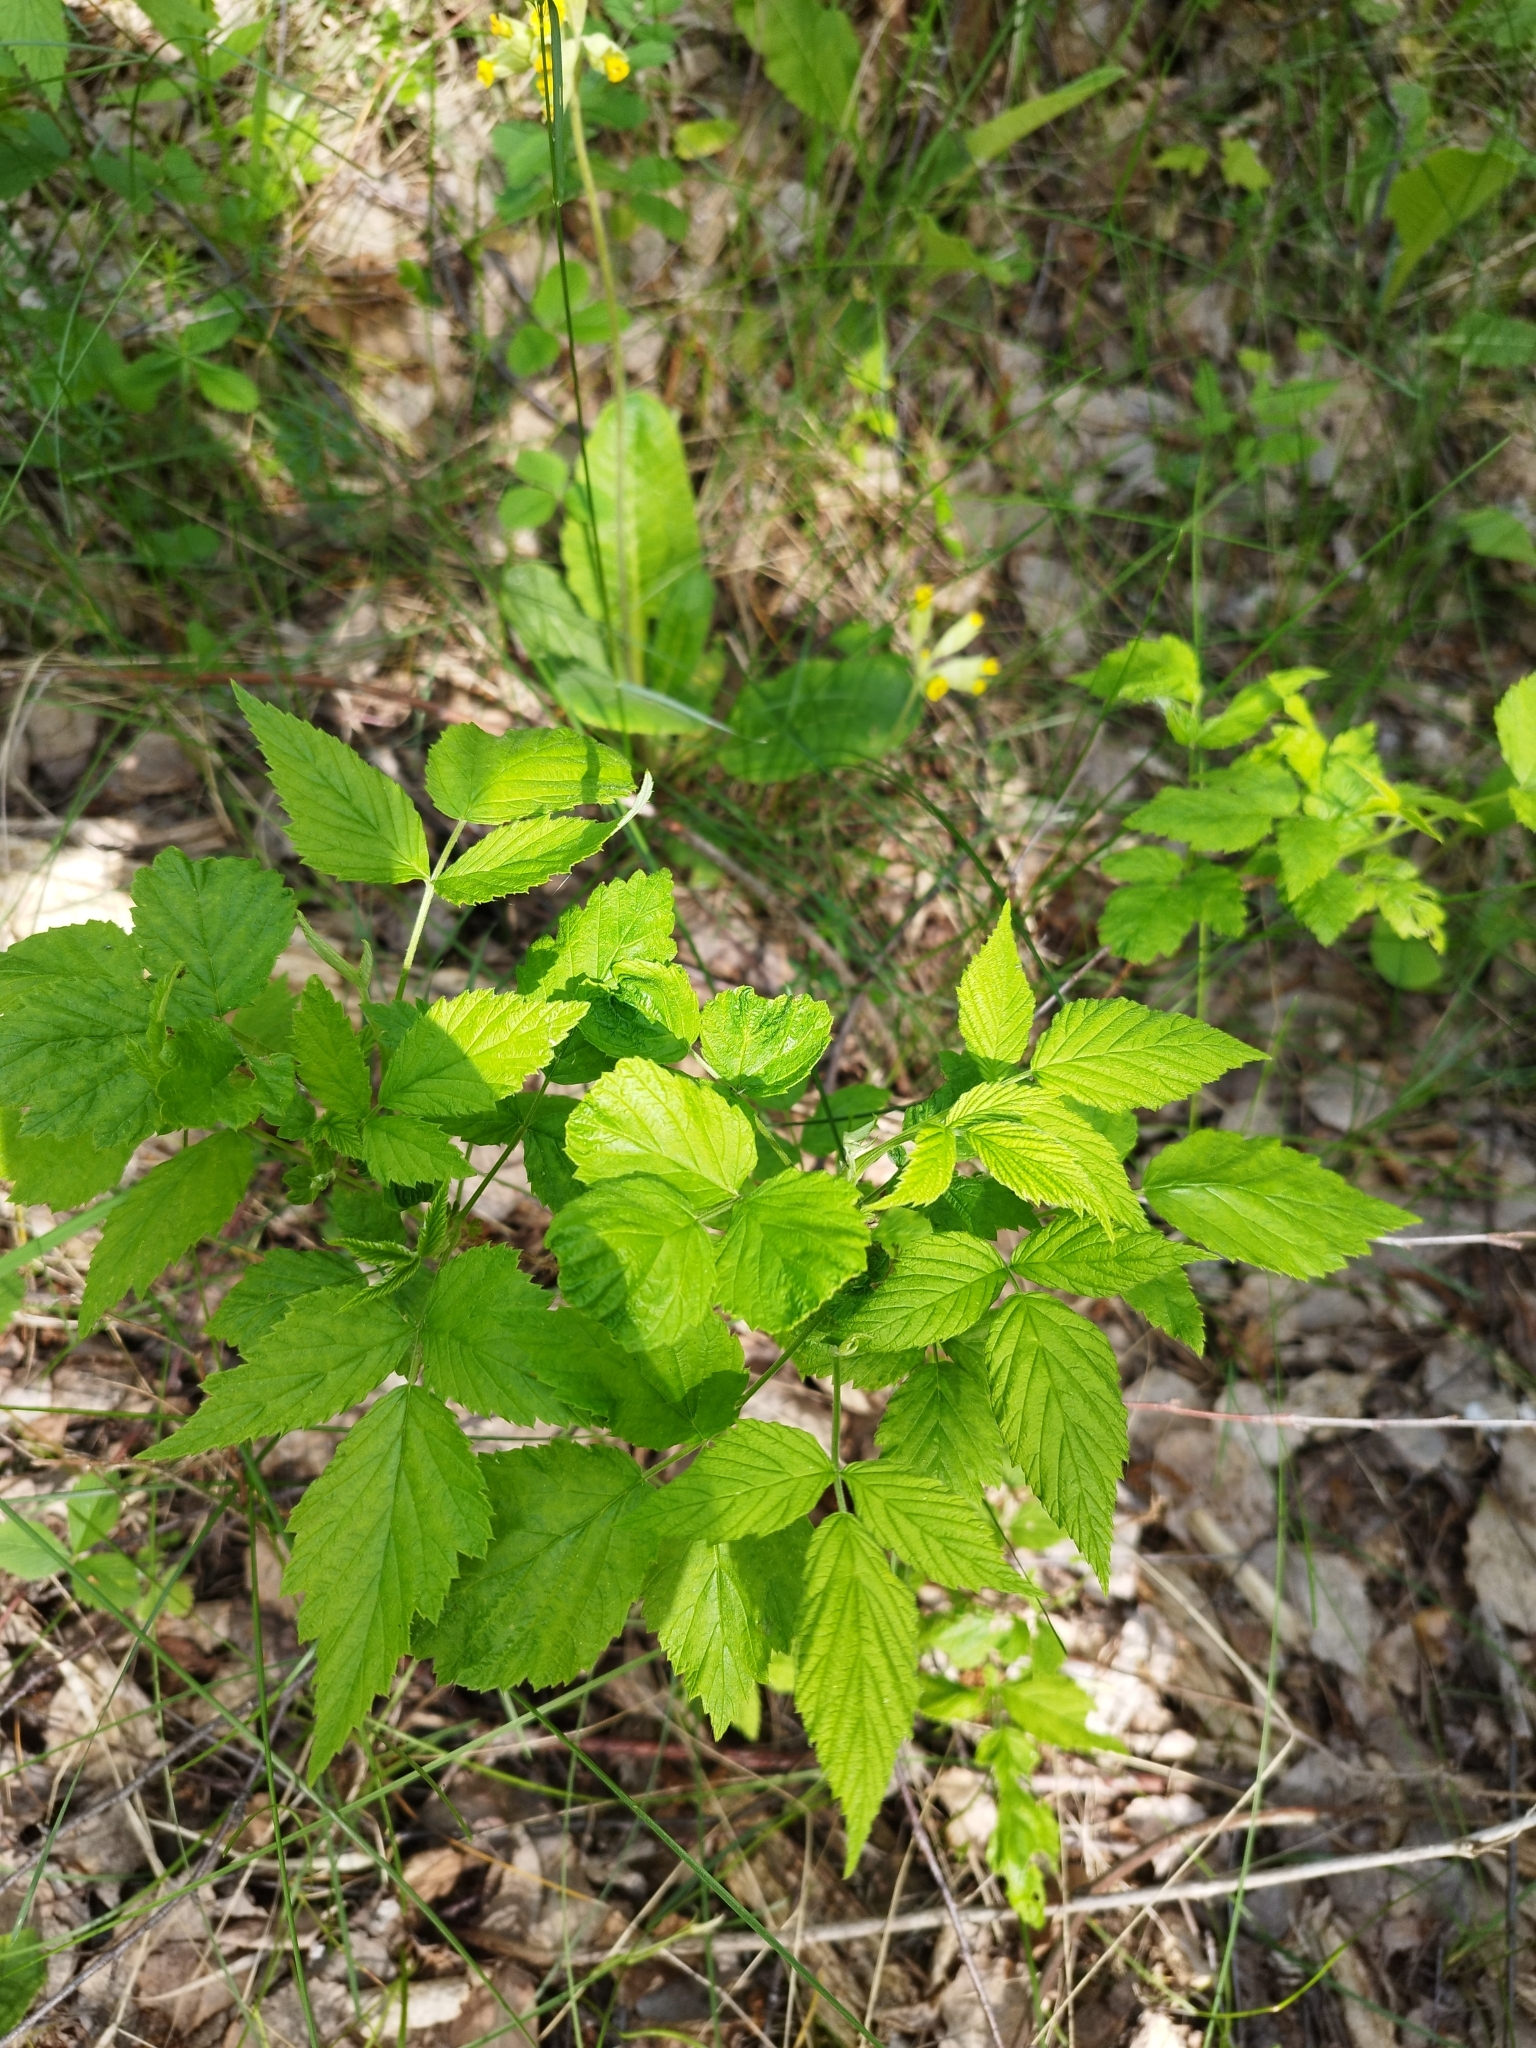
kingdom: Plantae
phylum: Tracheophyta
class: Magnoliopsida
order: Rosales
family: Rosaceae
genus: Rubus
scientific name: Rubus idaeus
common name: Raspberry
